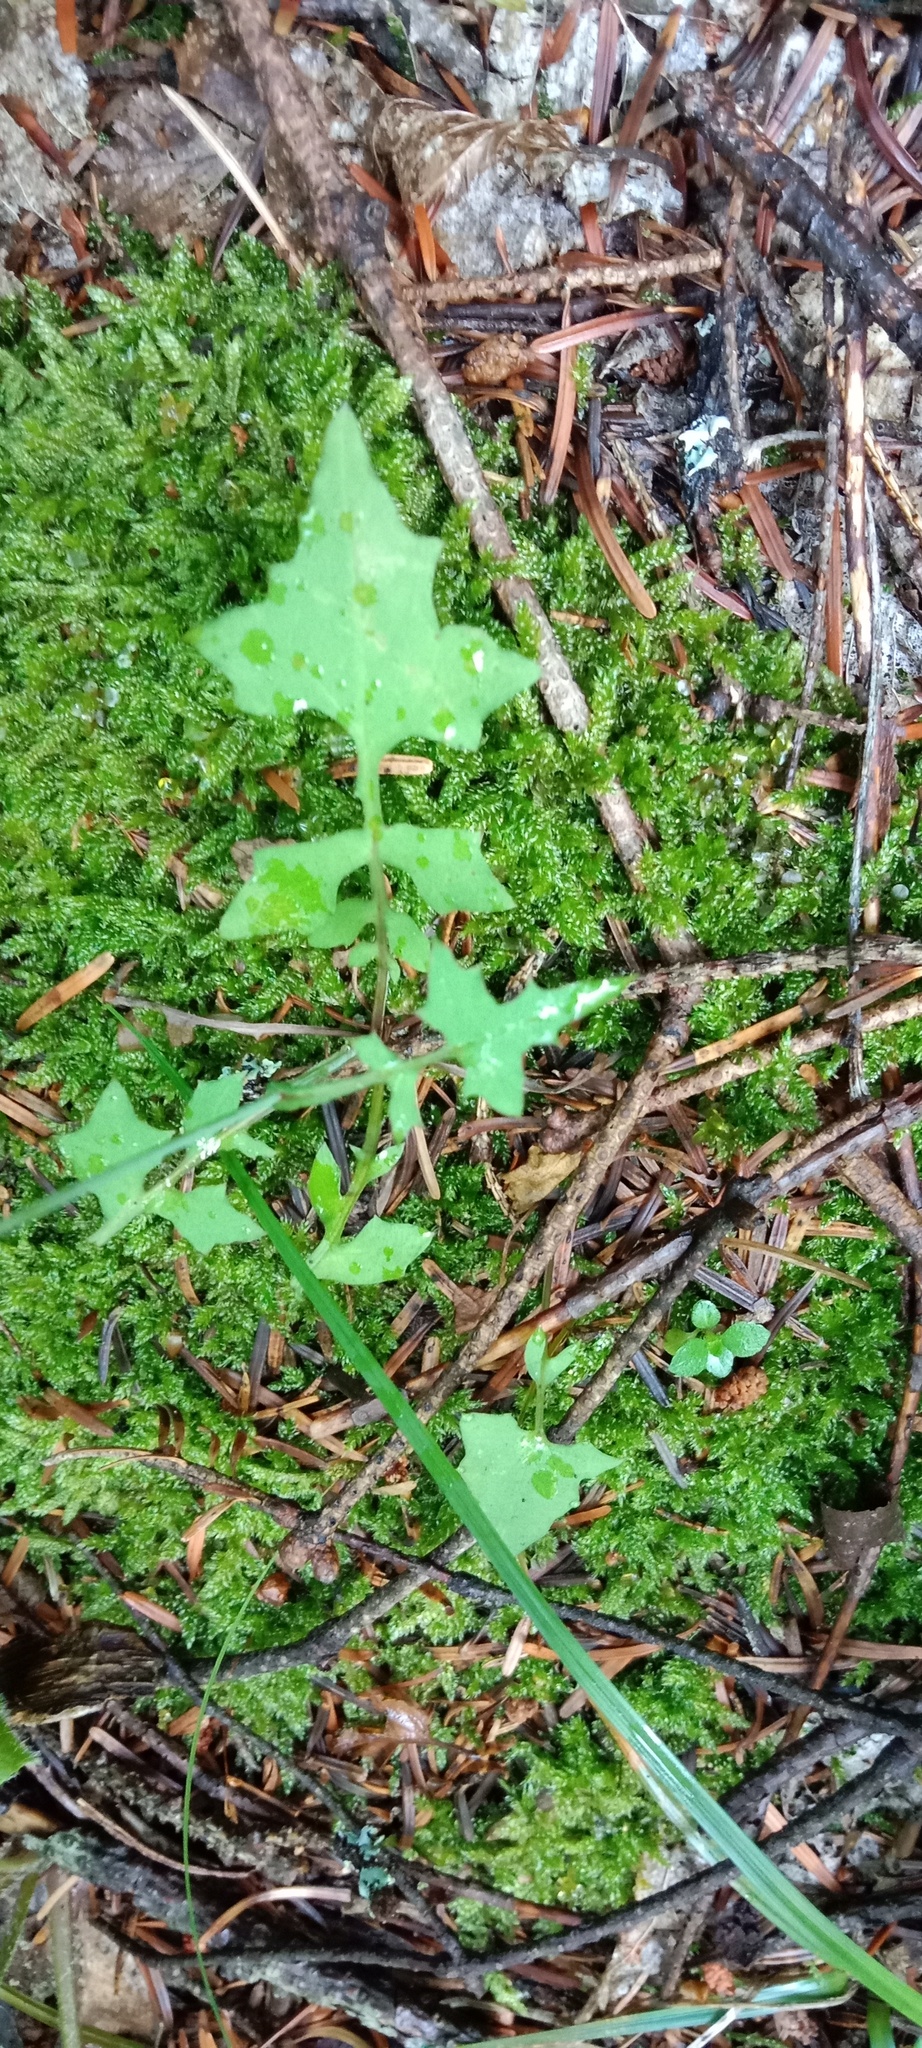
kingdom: Plantae
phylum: Tracheophyta
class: Magnoliopsida
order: Asterales
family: Asteraceae
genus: Mycelis
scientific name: Mycelis muralis
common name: Wall lettuce
